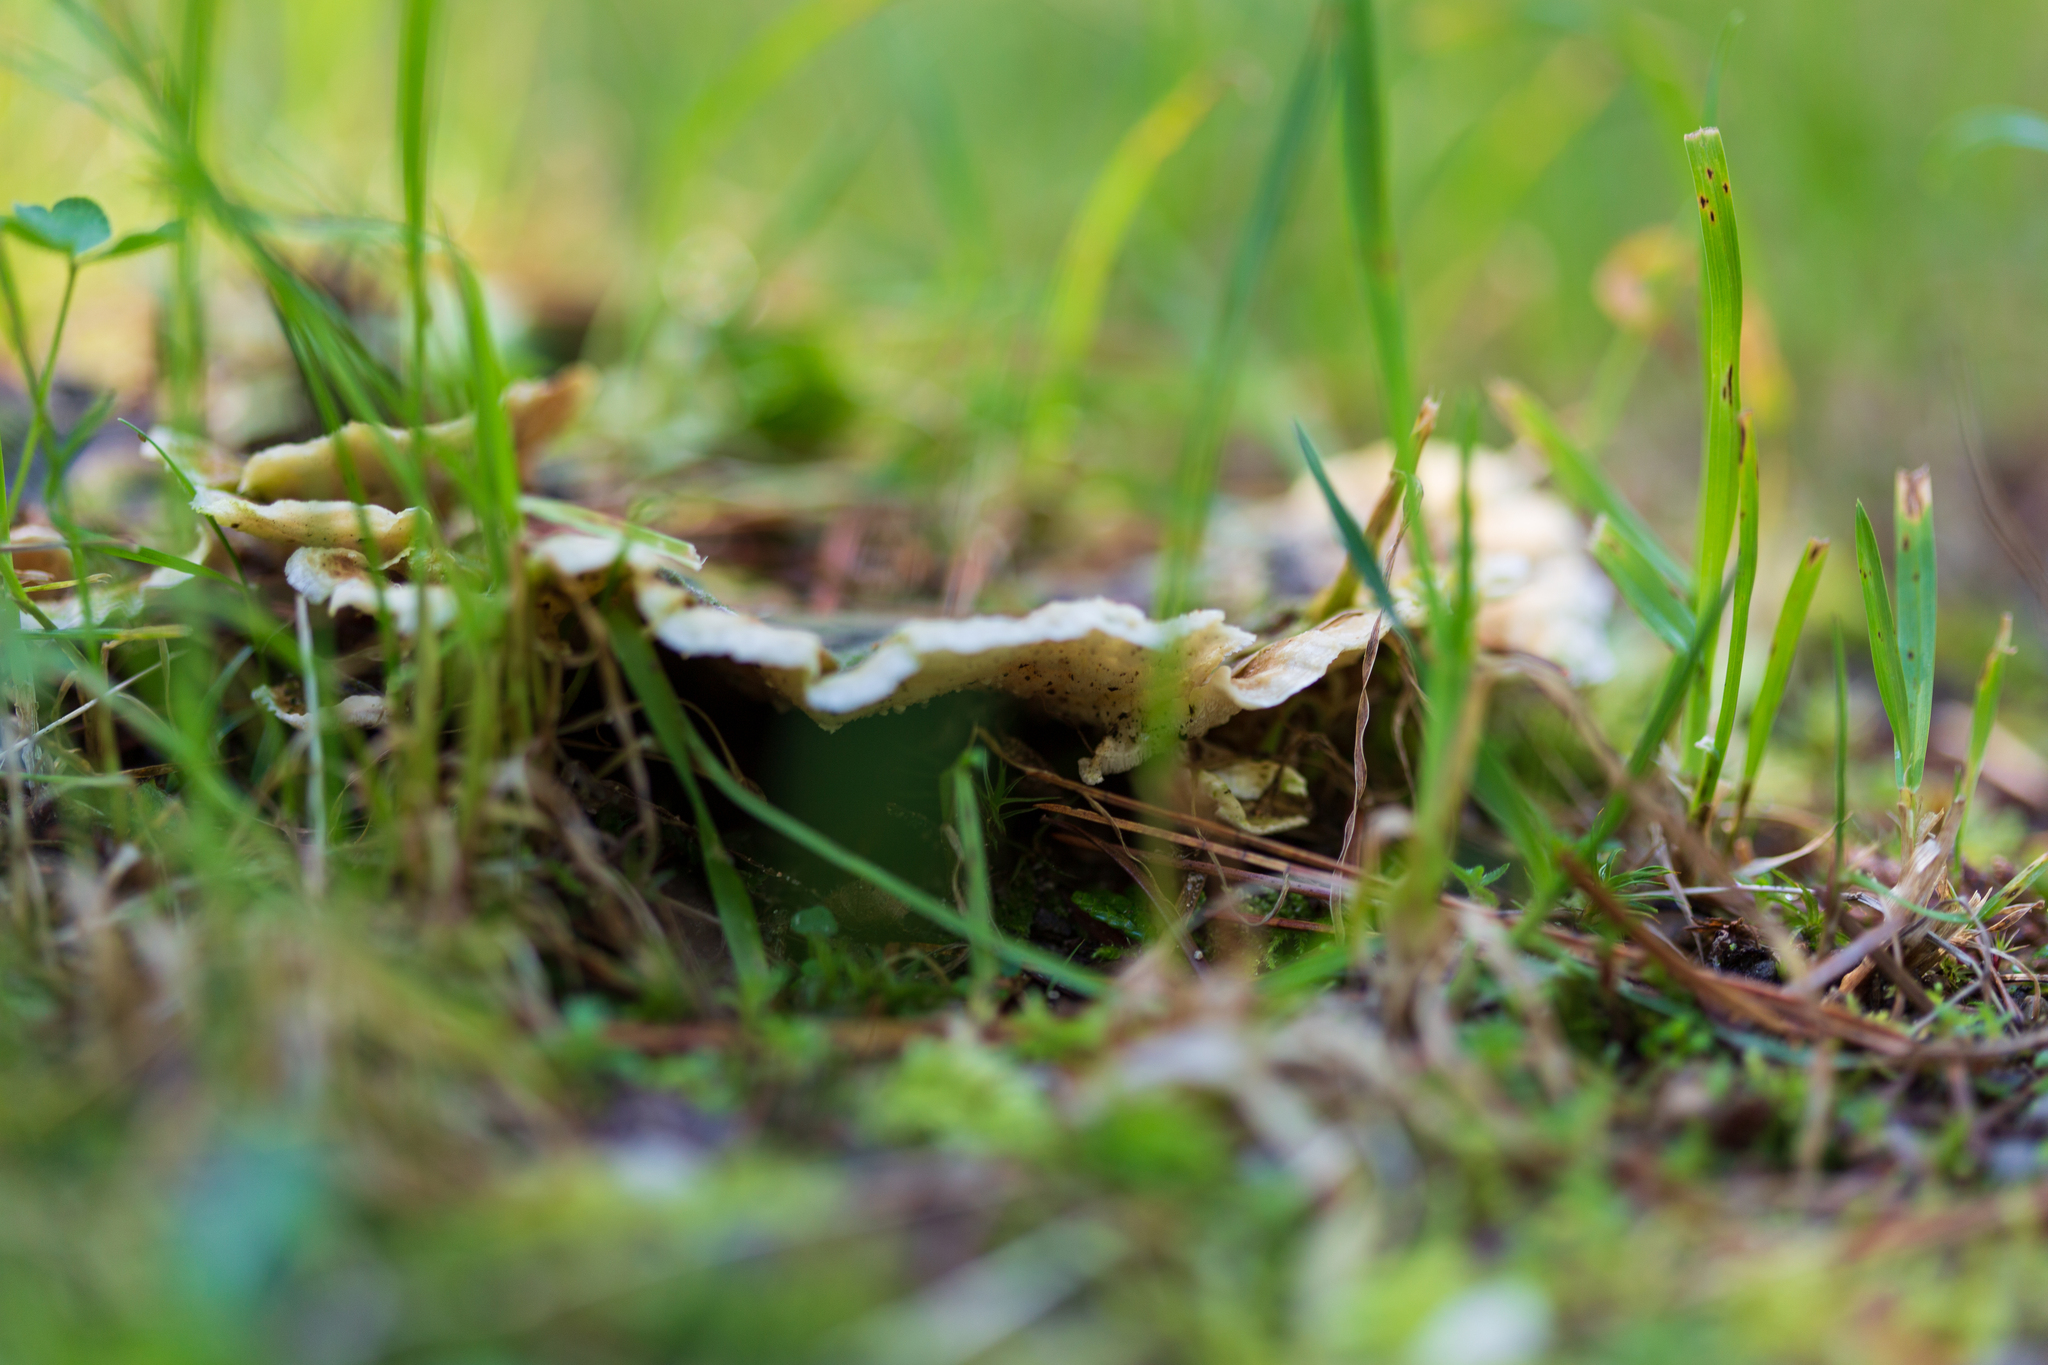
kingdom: Fungi
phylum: Basidiomycota
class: Agaricomycetes
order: Polyporales
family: Polyporaceae
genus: Trametes
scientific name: Trametes versicolor
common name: Turkeytail
